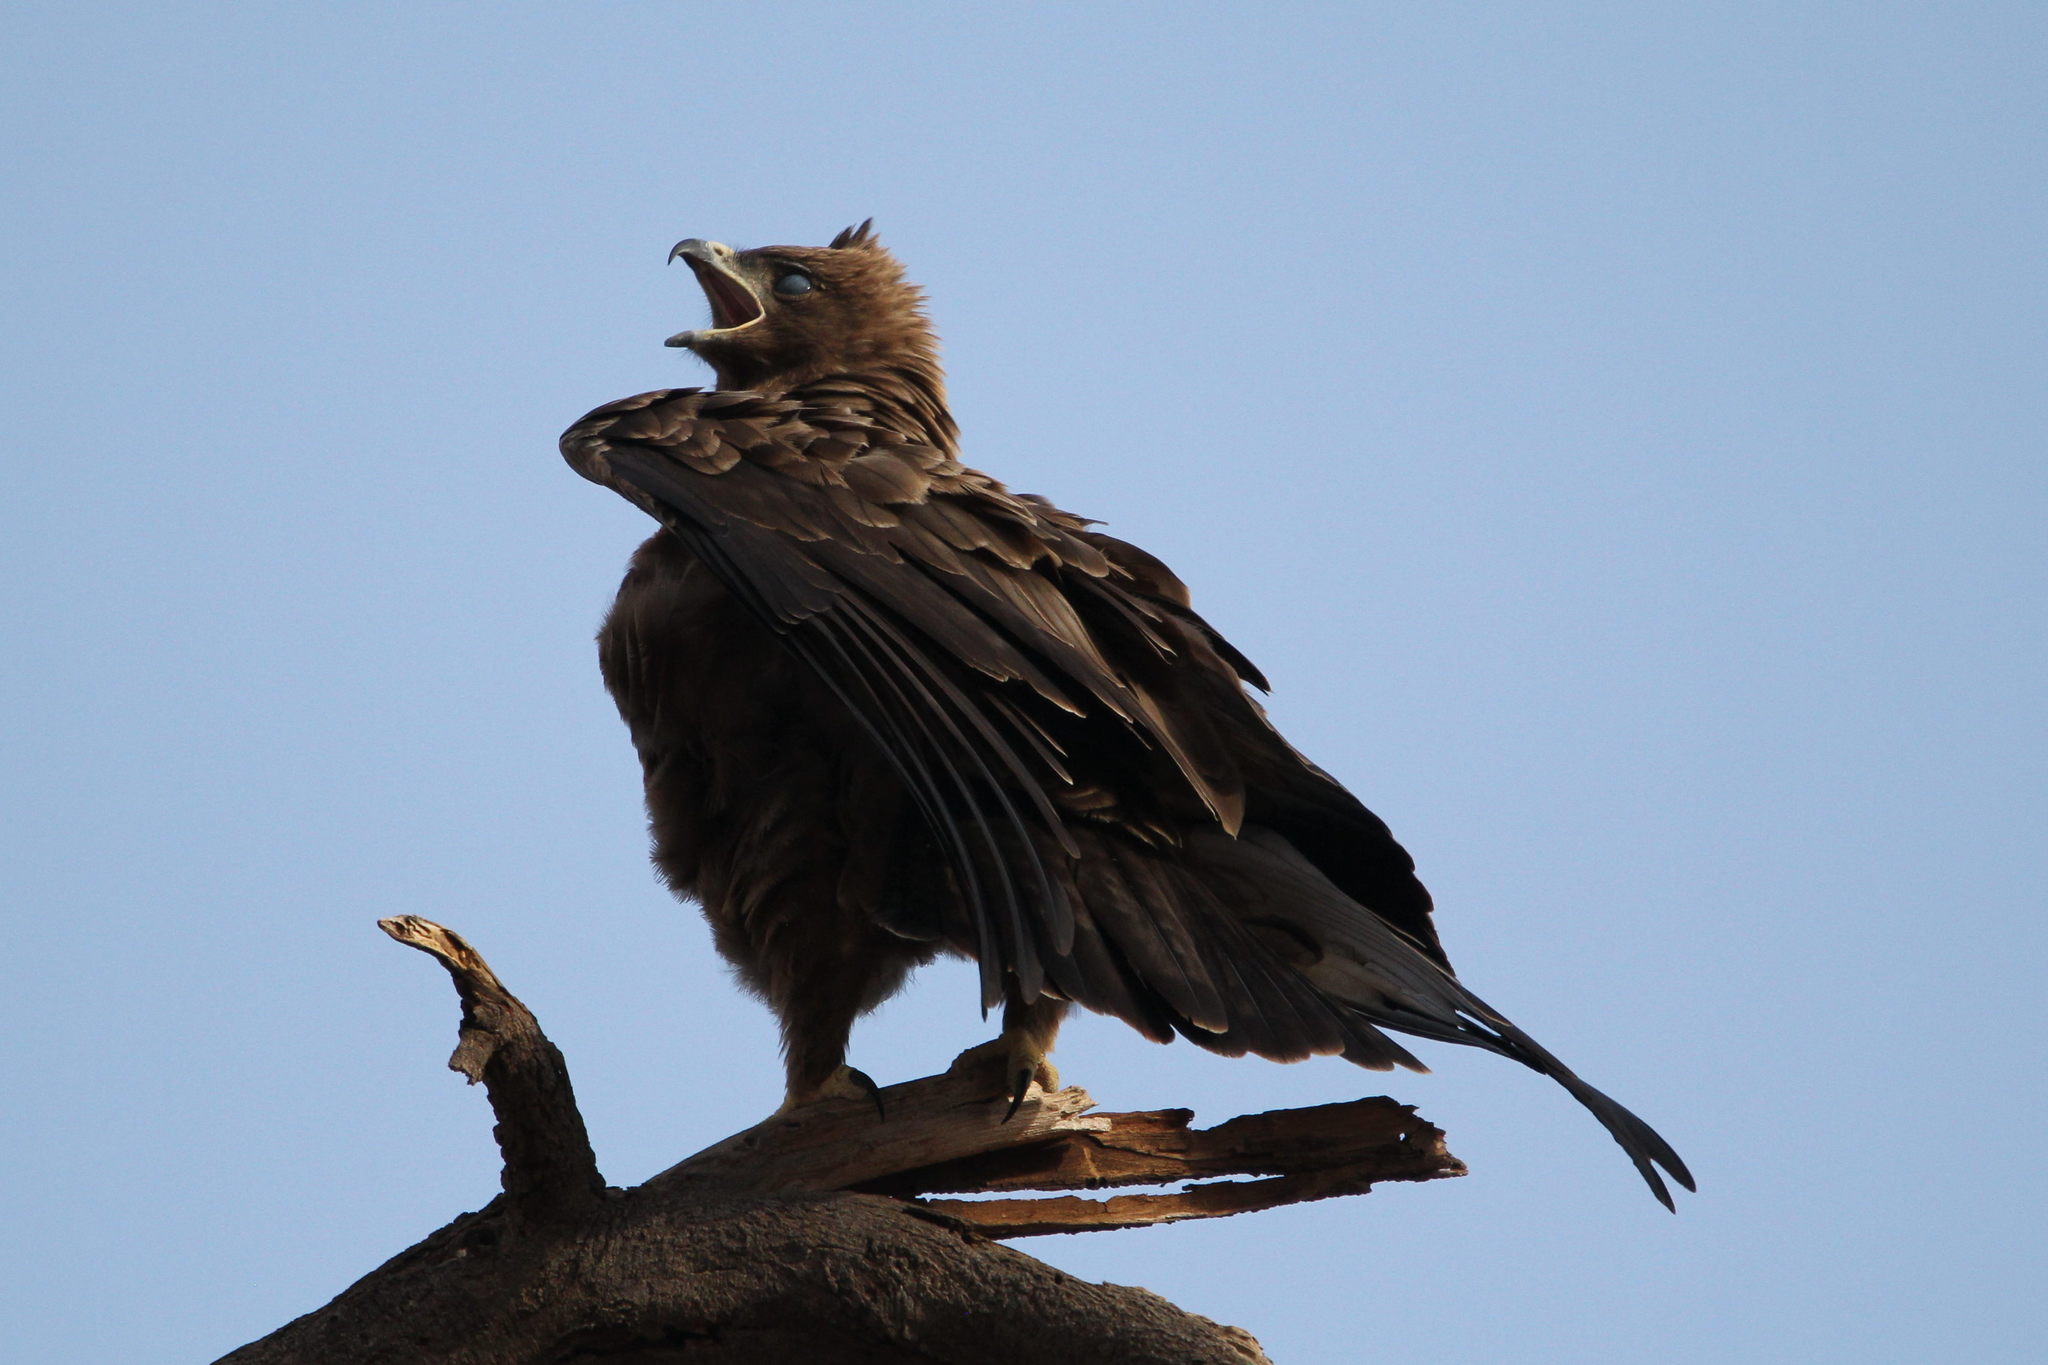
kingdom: Animalia
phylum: Chordata
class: Aves
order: Accipitriformes
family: Accipitridae
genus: Hieraaetus
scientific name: Hieraaetus wahlbergi
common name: Wahlberg's eagle
